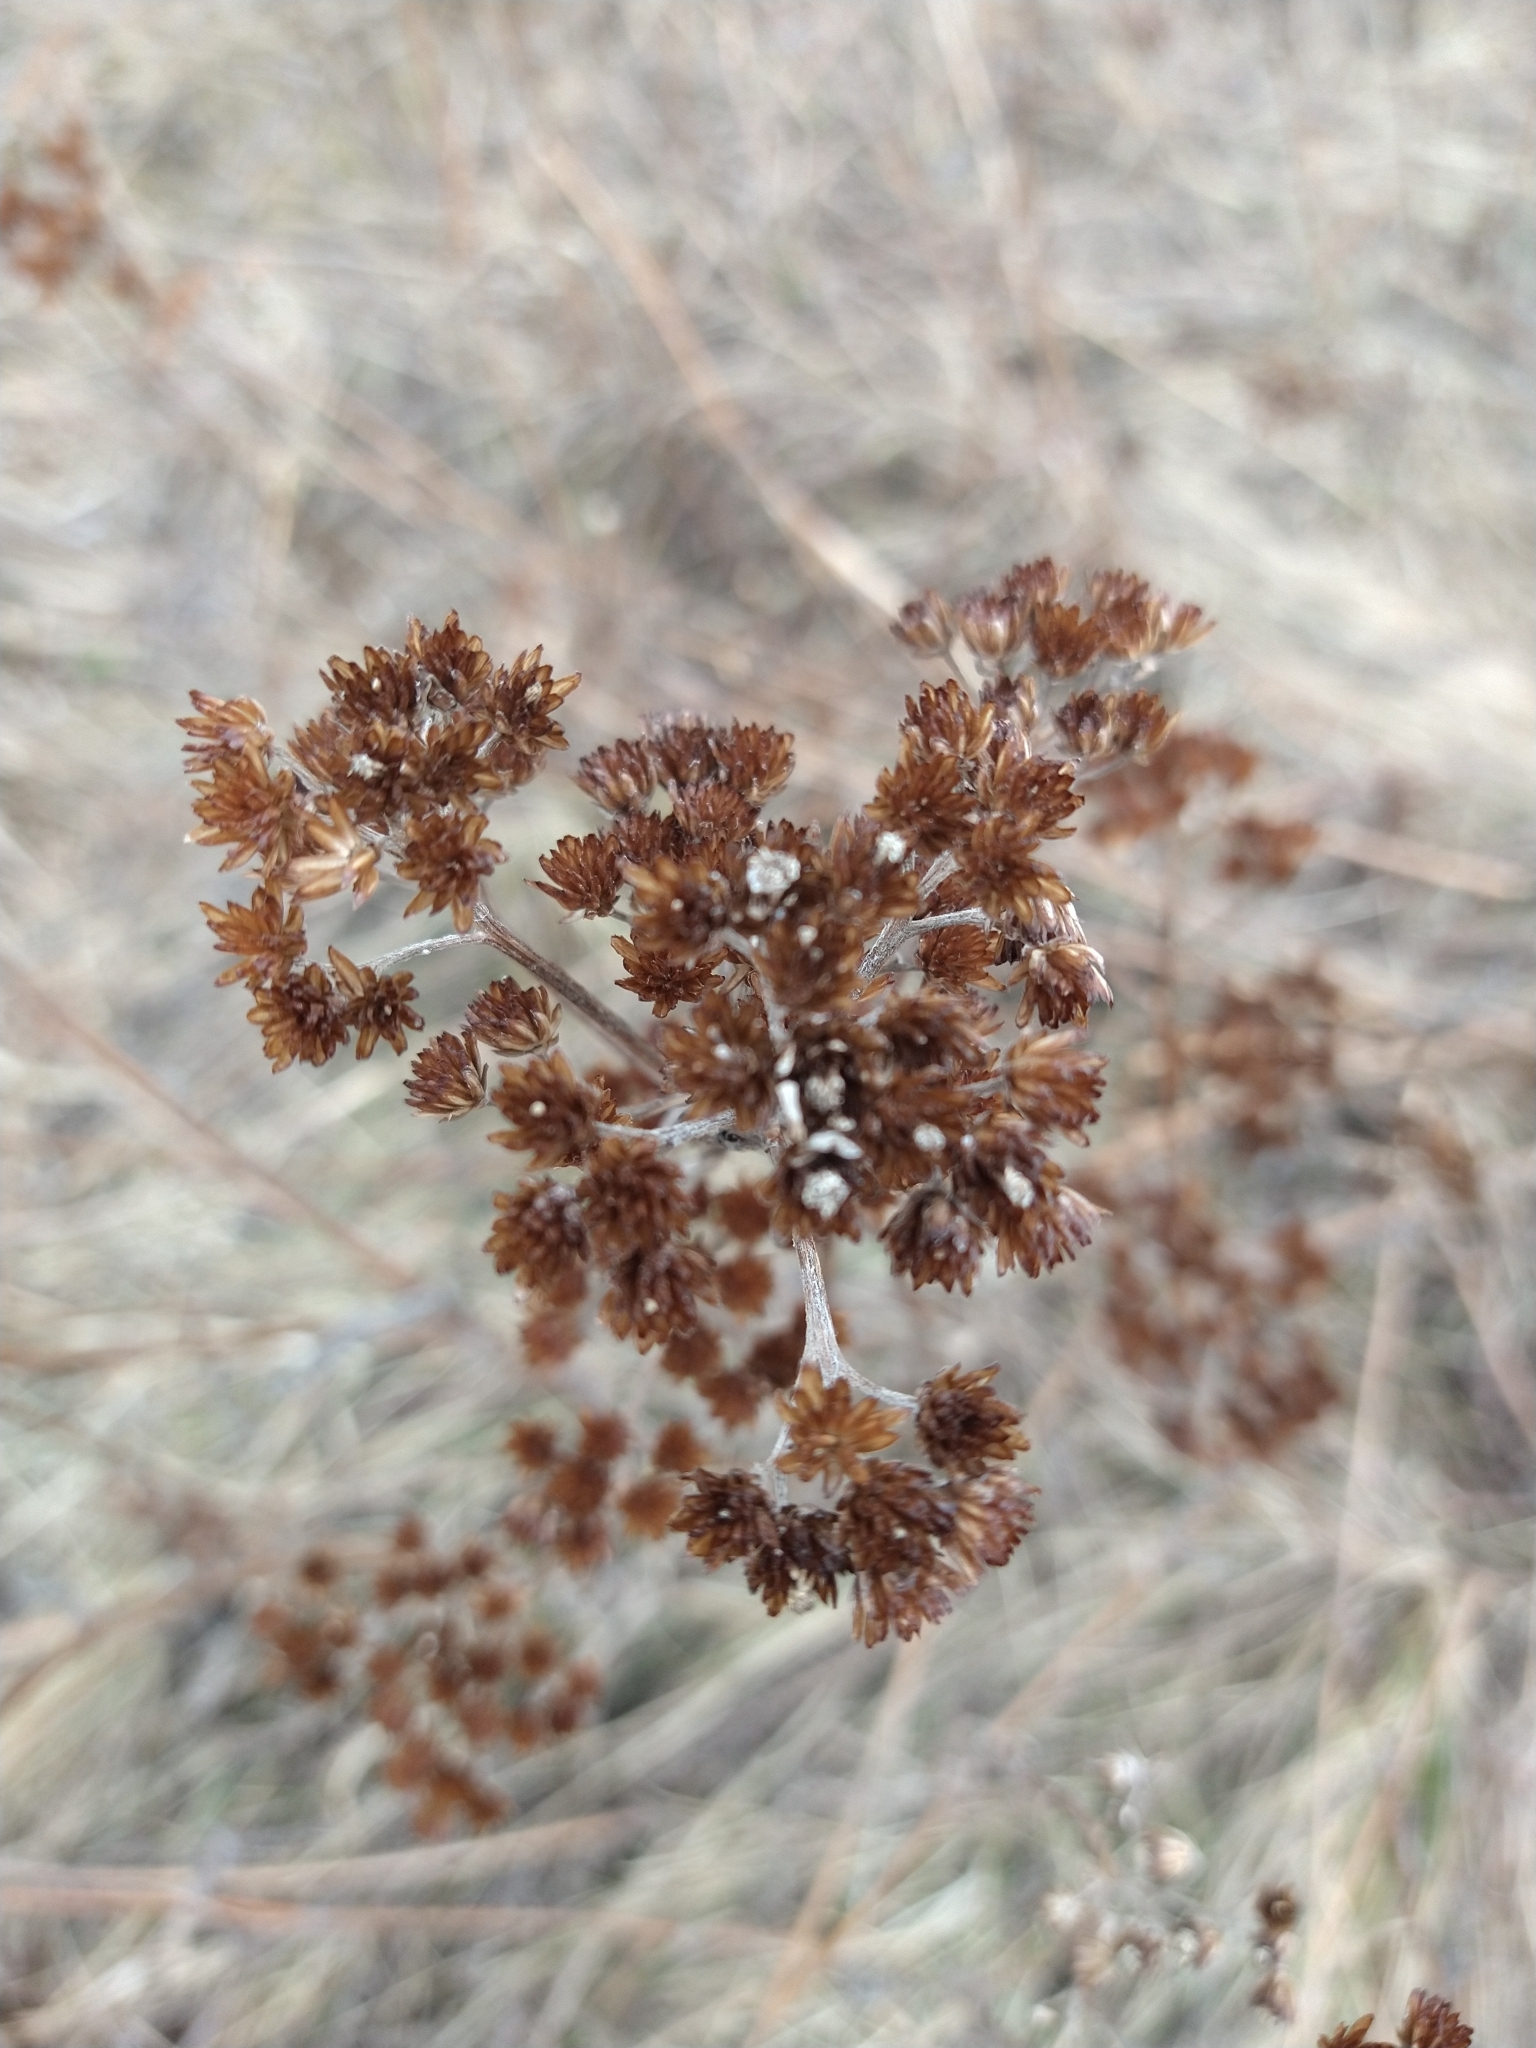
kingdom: Plantae
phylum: Tracheophyta
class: Magnoliopsida
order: Asterales
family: Asteraceae
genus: Achillea
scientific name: Achillea millefolium
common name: Yarrow
